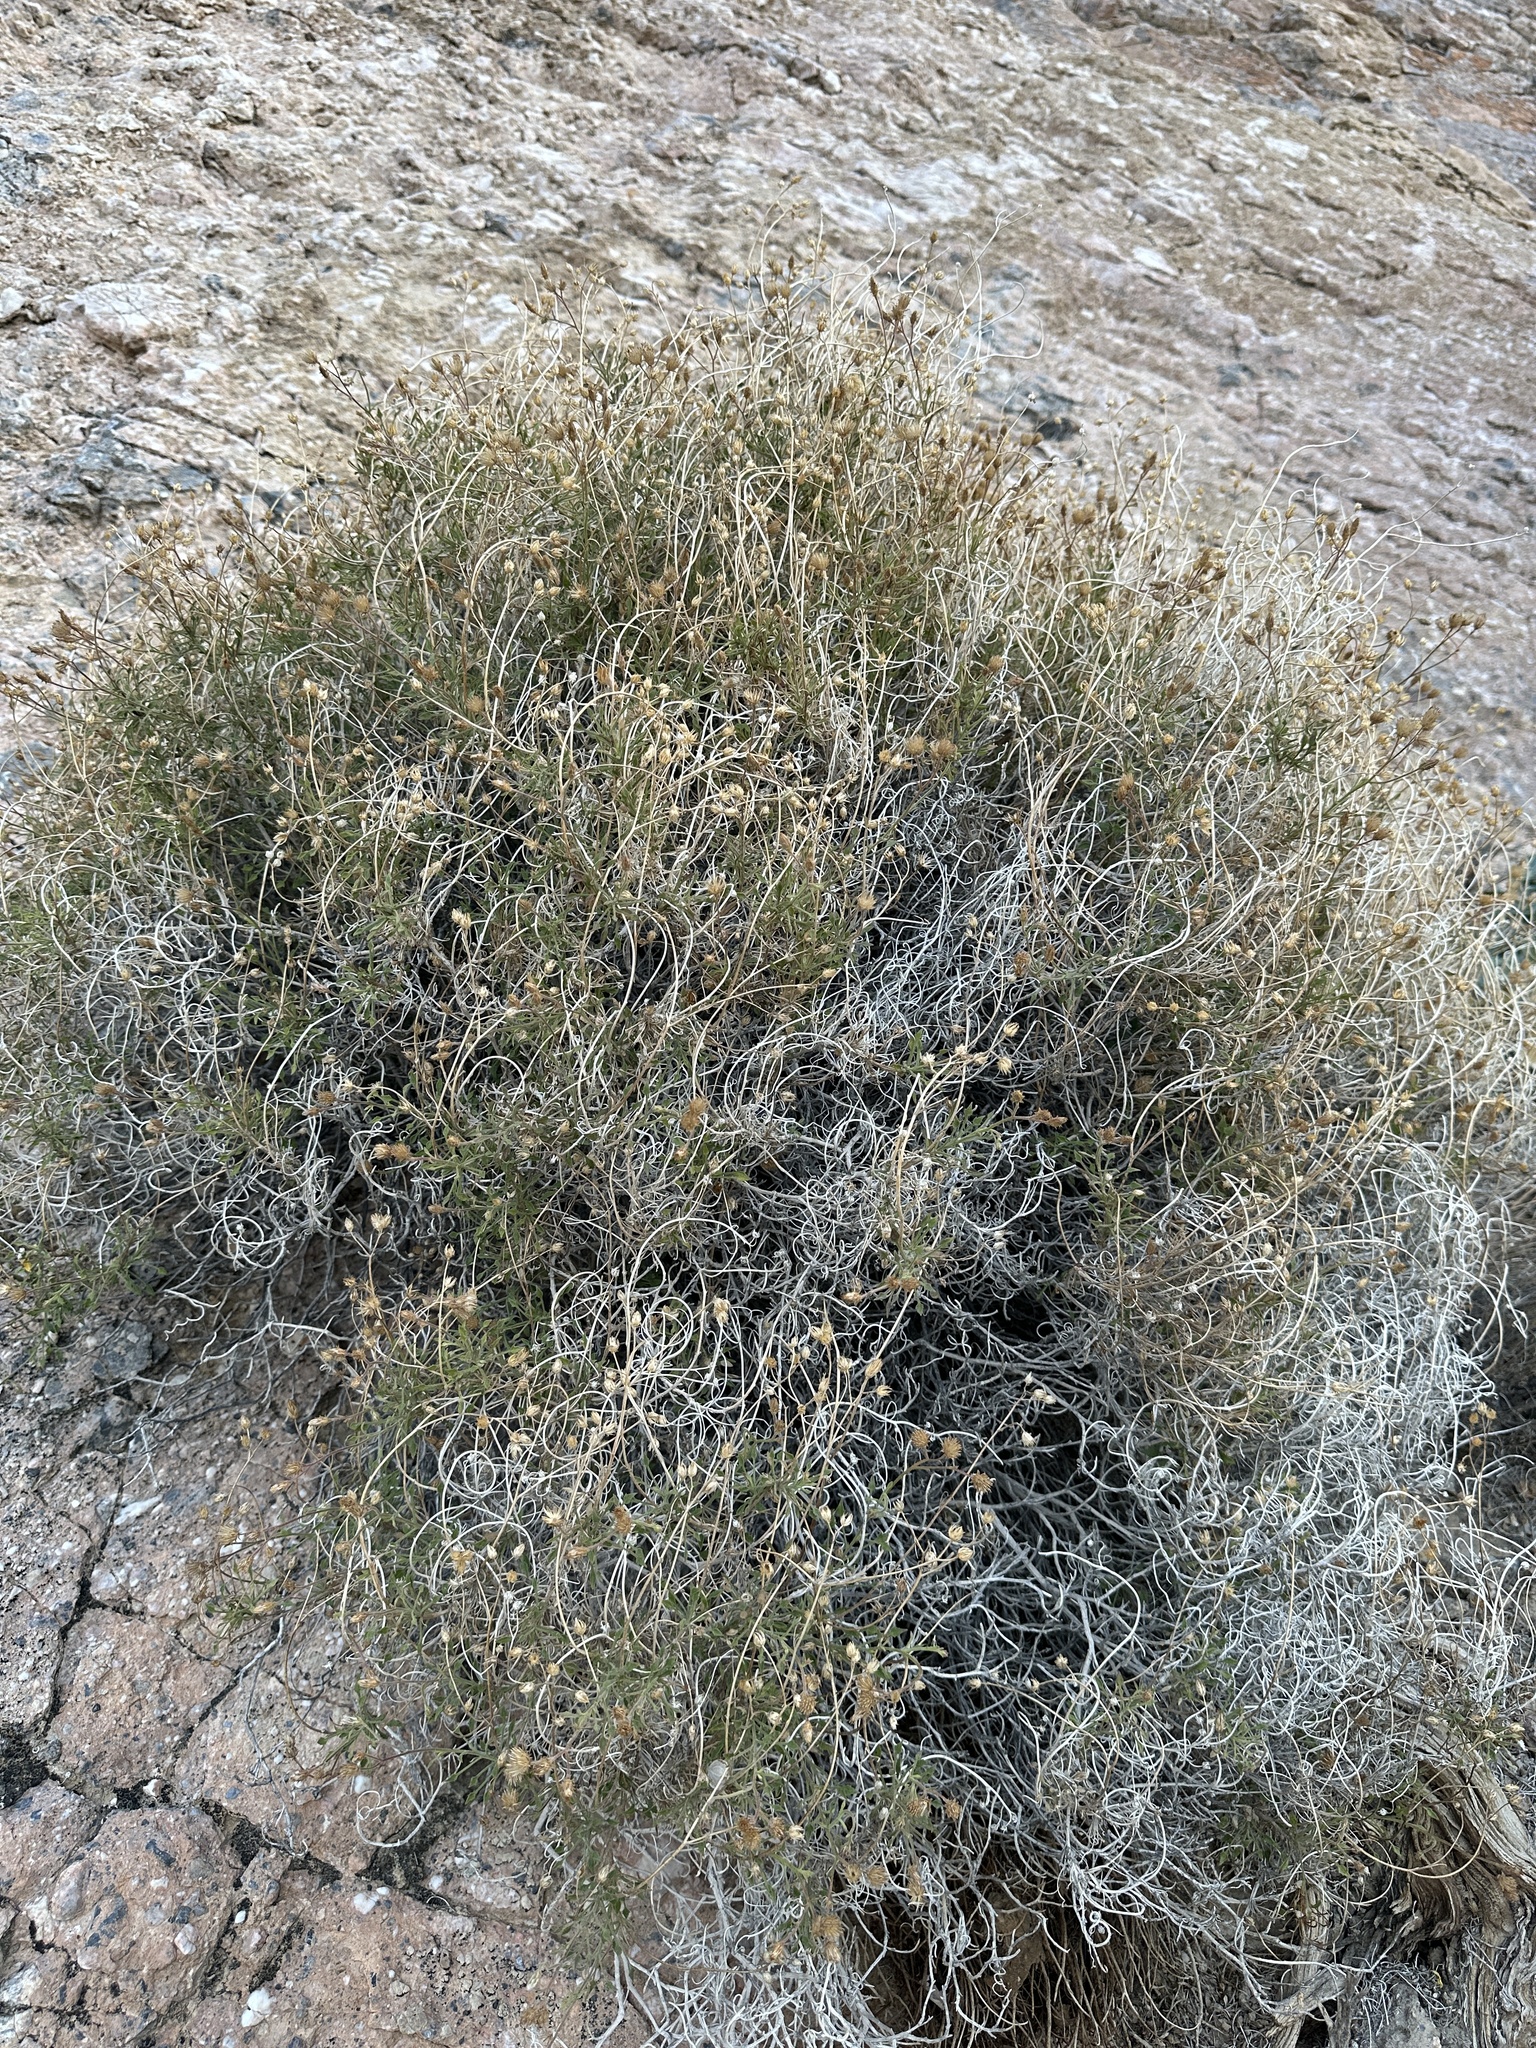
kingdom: Plantae
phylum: Tracheophyta
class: Magnoliopsida
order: Asterales
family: Asteraceae
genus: Pleurocoronis
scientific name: Pleurocoronis pluriseta
